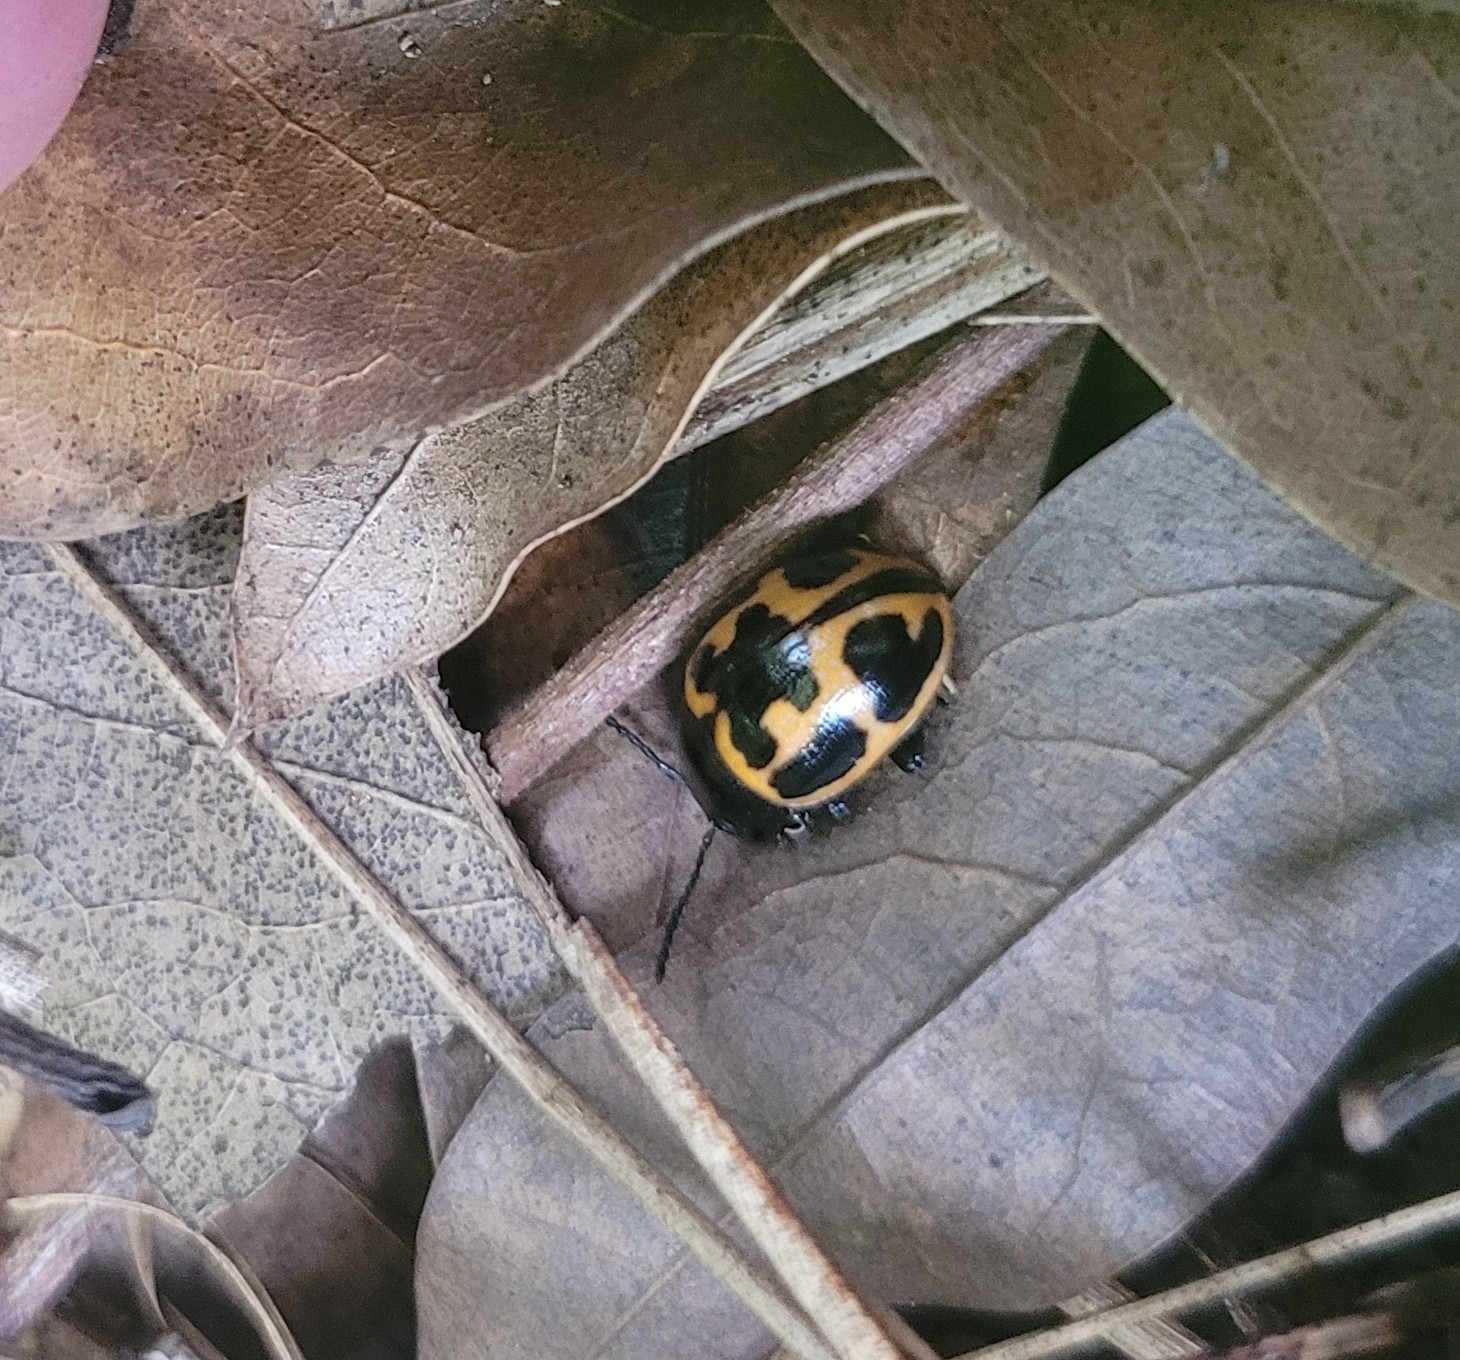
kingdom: Animalia
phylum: Arthropoda
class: Insecta
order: Coleoptera
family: Chrysomelidae
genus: Labidomera
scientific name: Labidomera clivicollis
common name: Swamp milkweed leaf beetle
